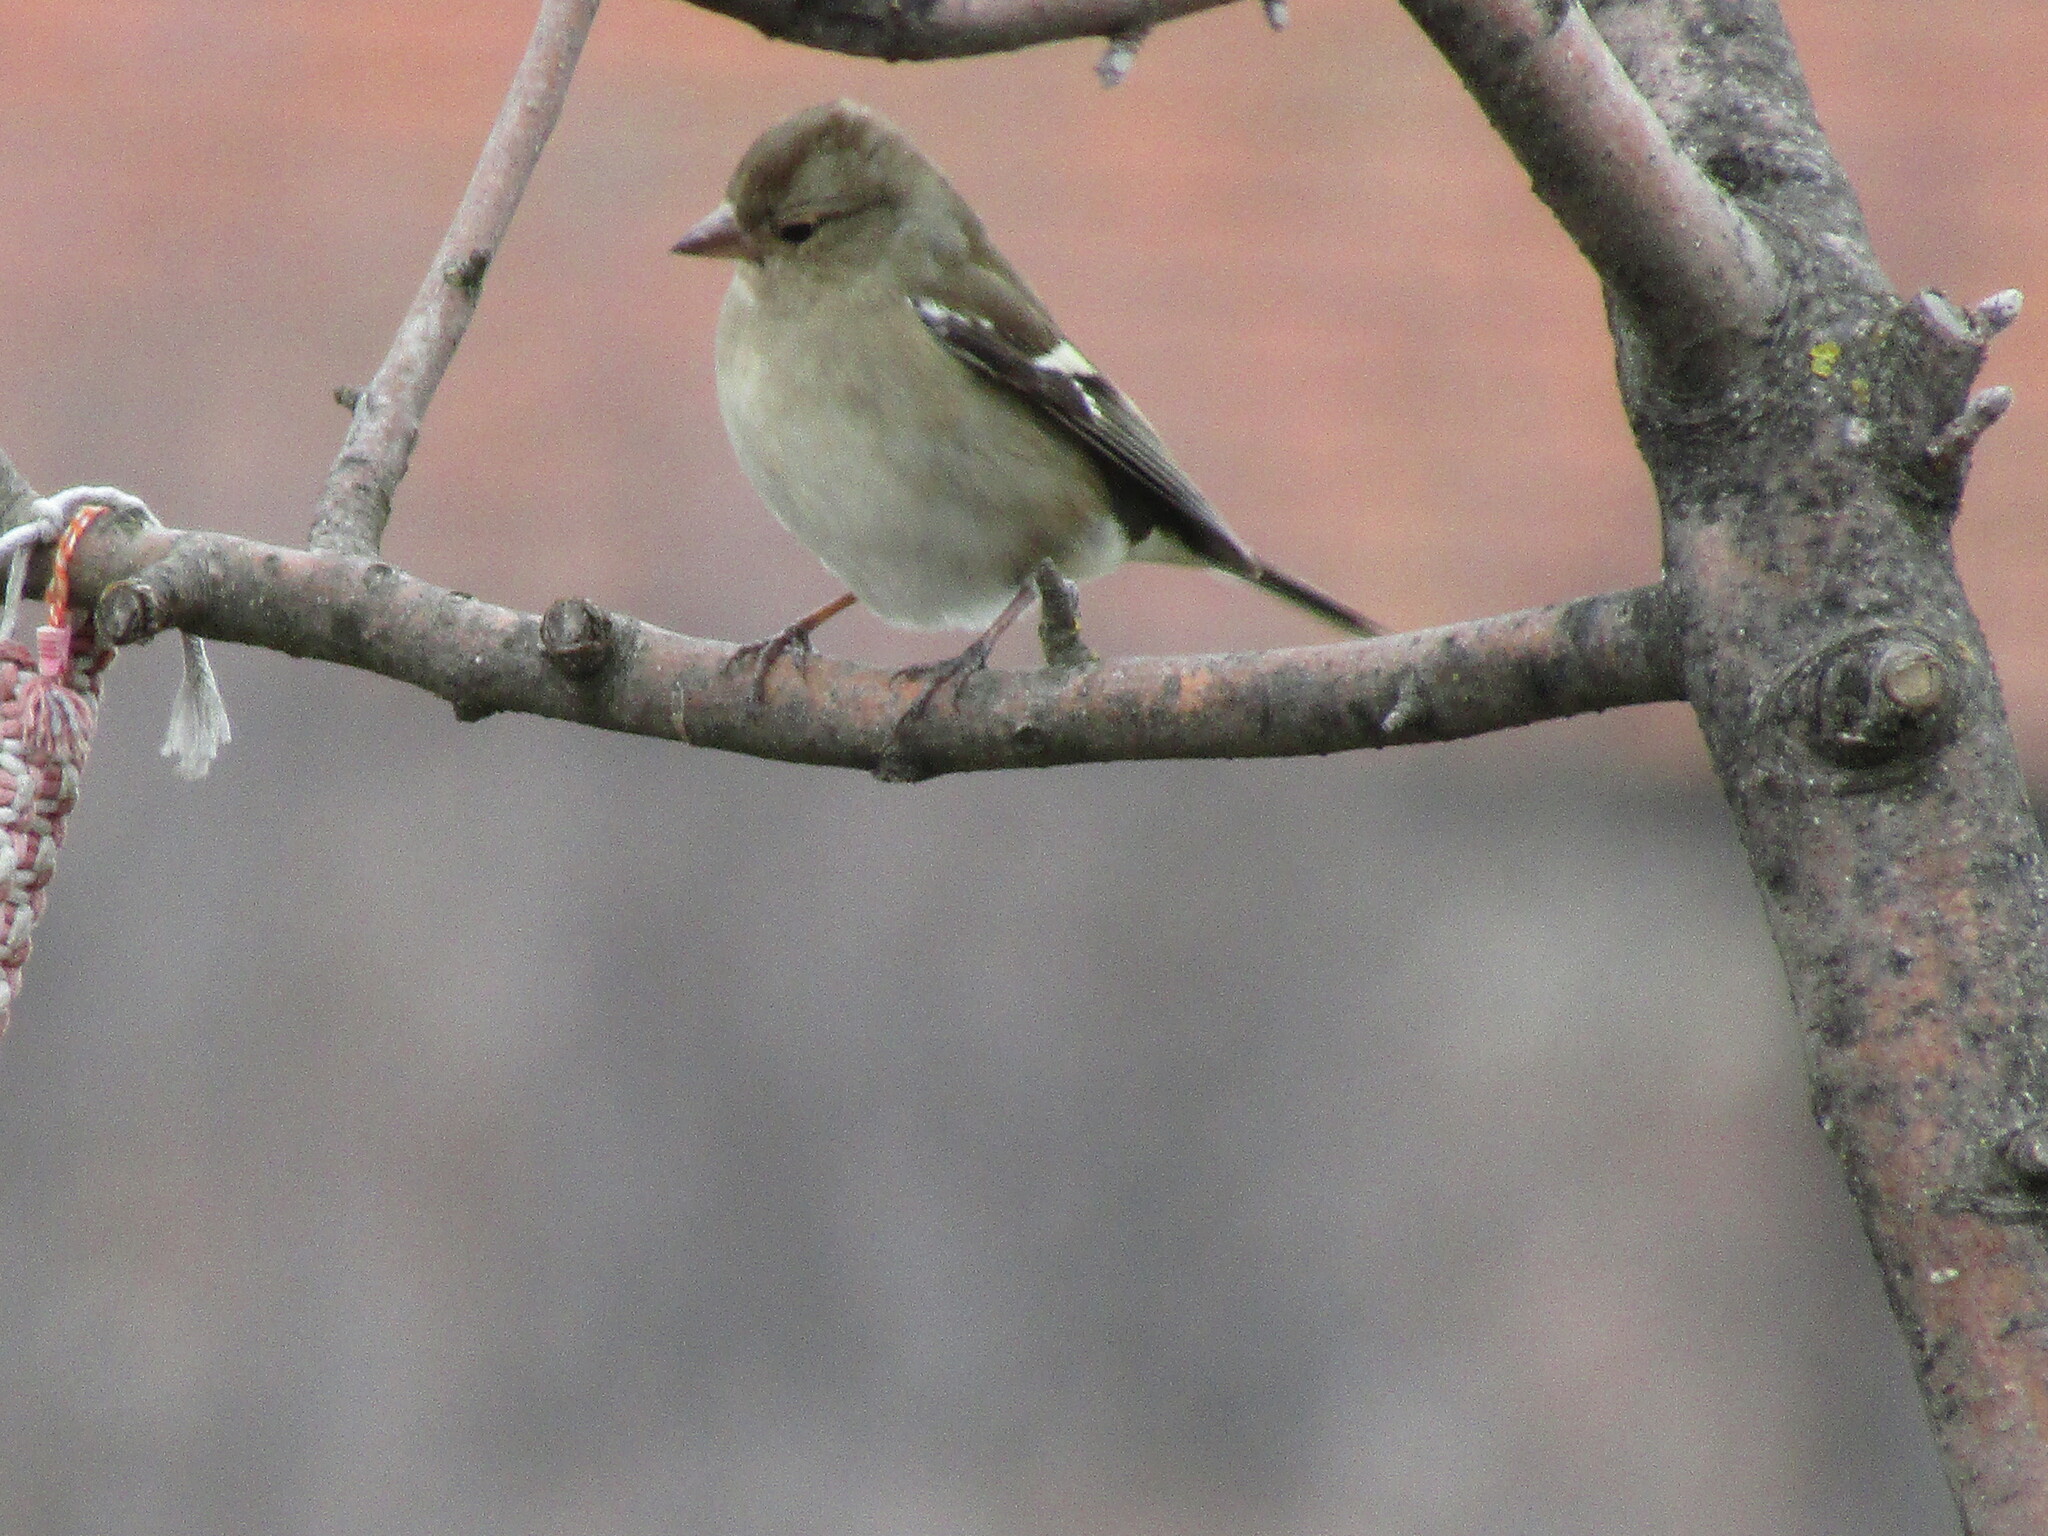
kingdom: Animalia
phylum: Chordata
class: Aves
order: Passeriformes
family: Fringillidae
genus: Fringilla
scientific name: Fringilla coelebs
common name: Common chaffinch
